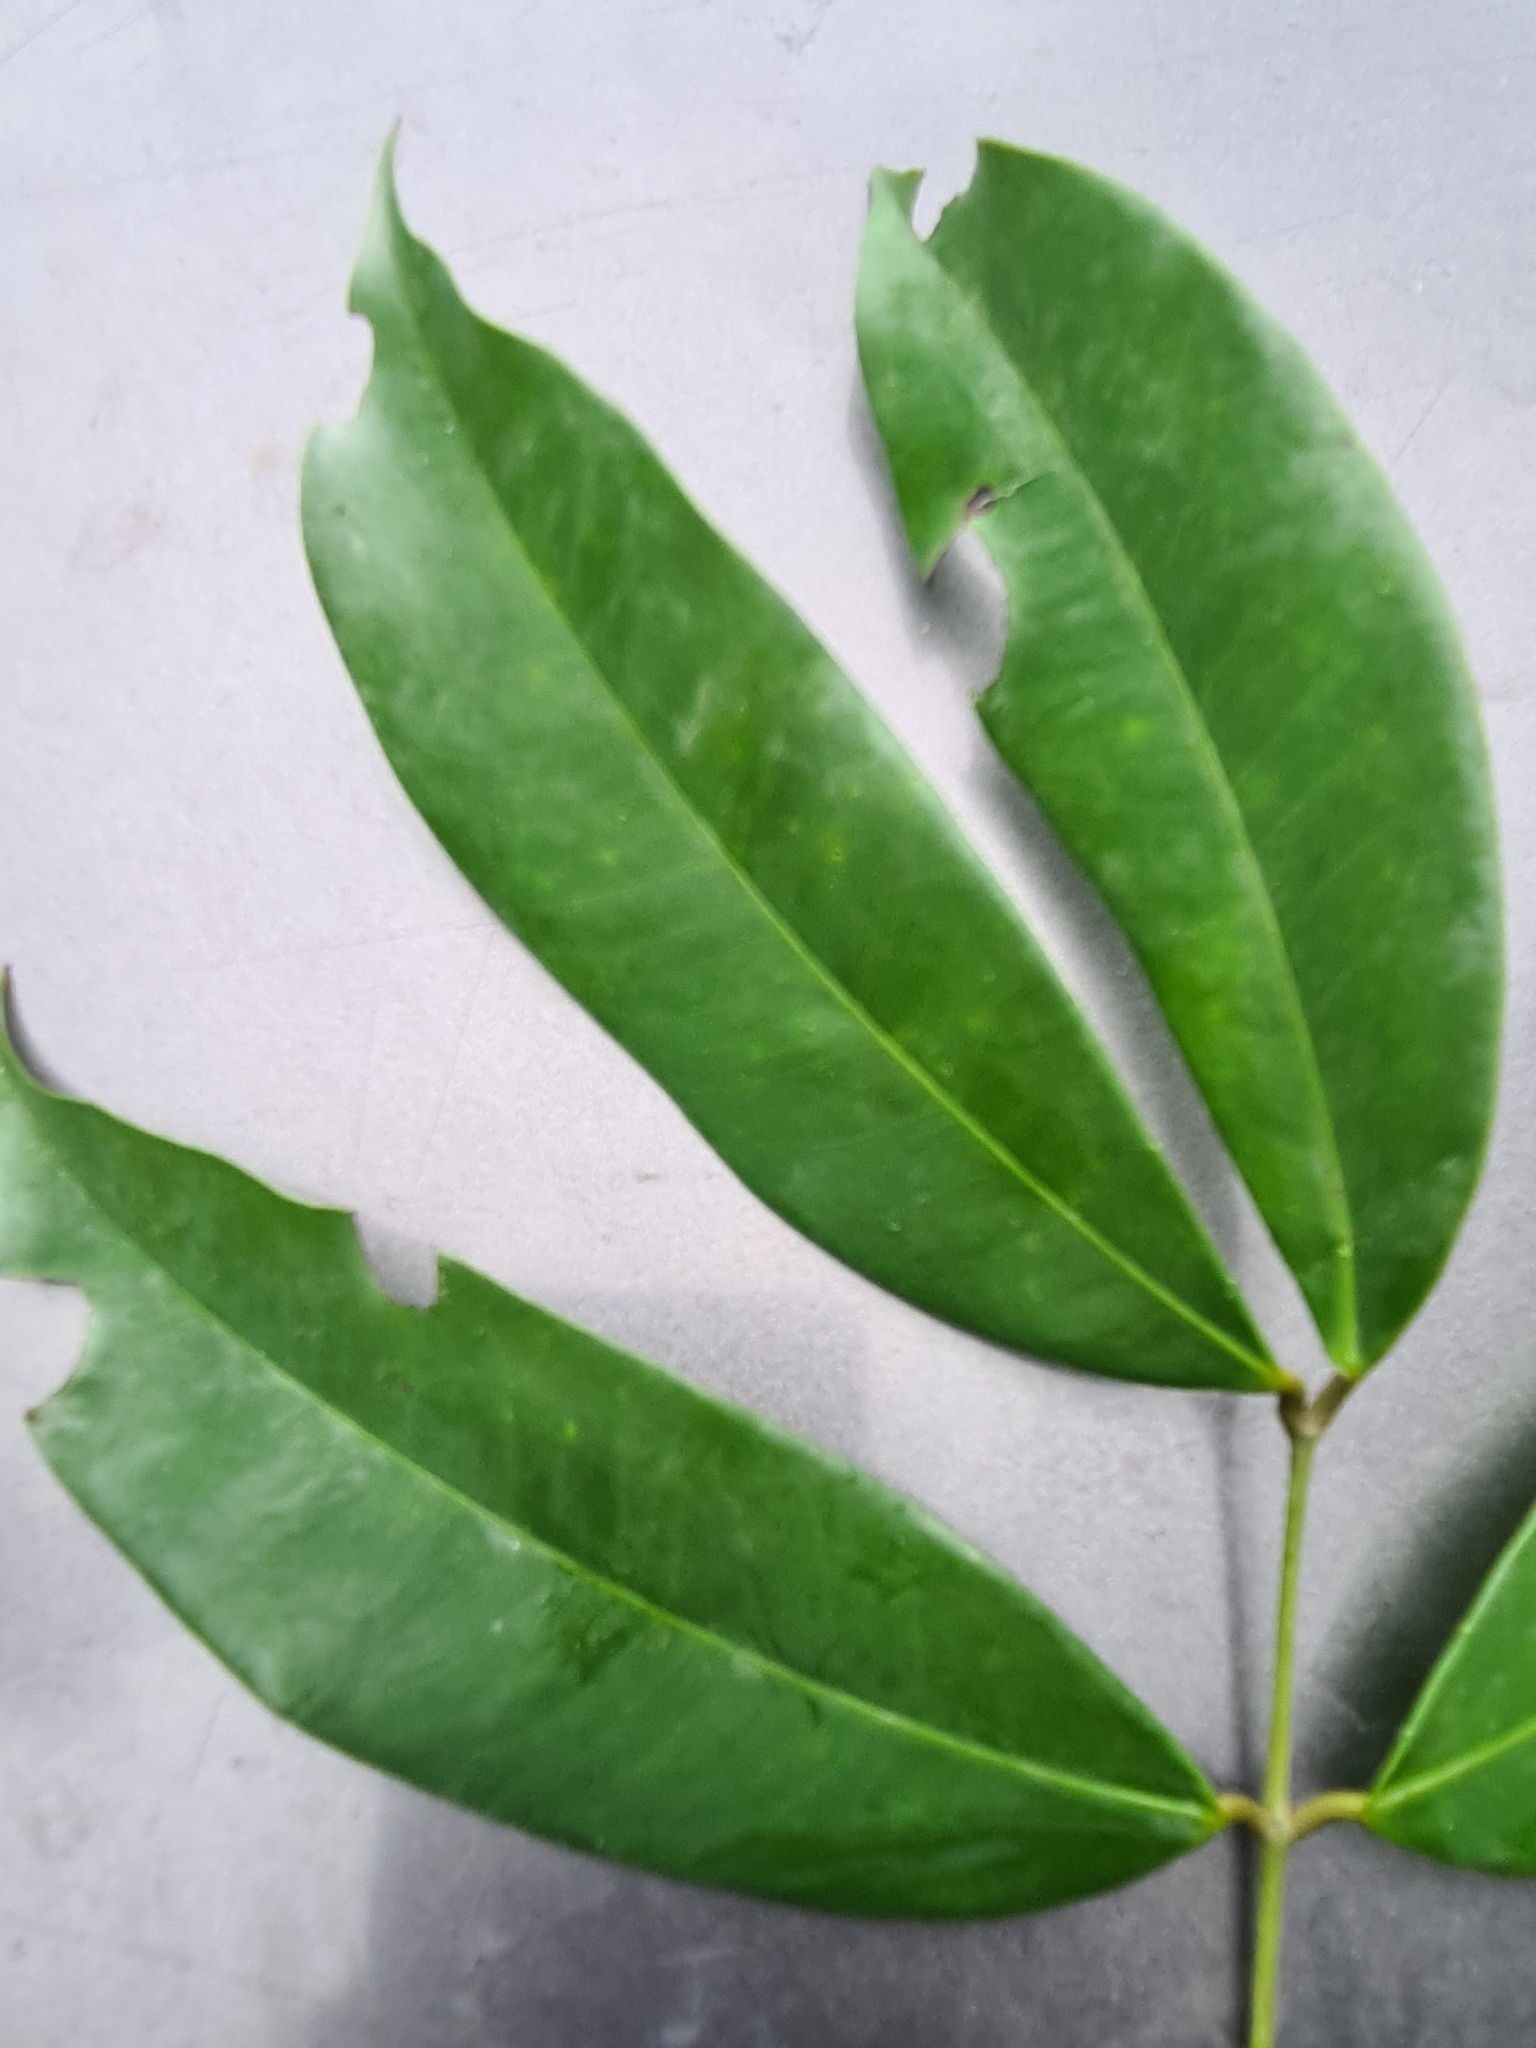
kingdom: Plantae
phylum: Tracheophyta
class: Magnoliopsida
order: Fabales
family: Fabaceae
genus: Eperua
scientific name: Eperua falcata
